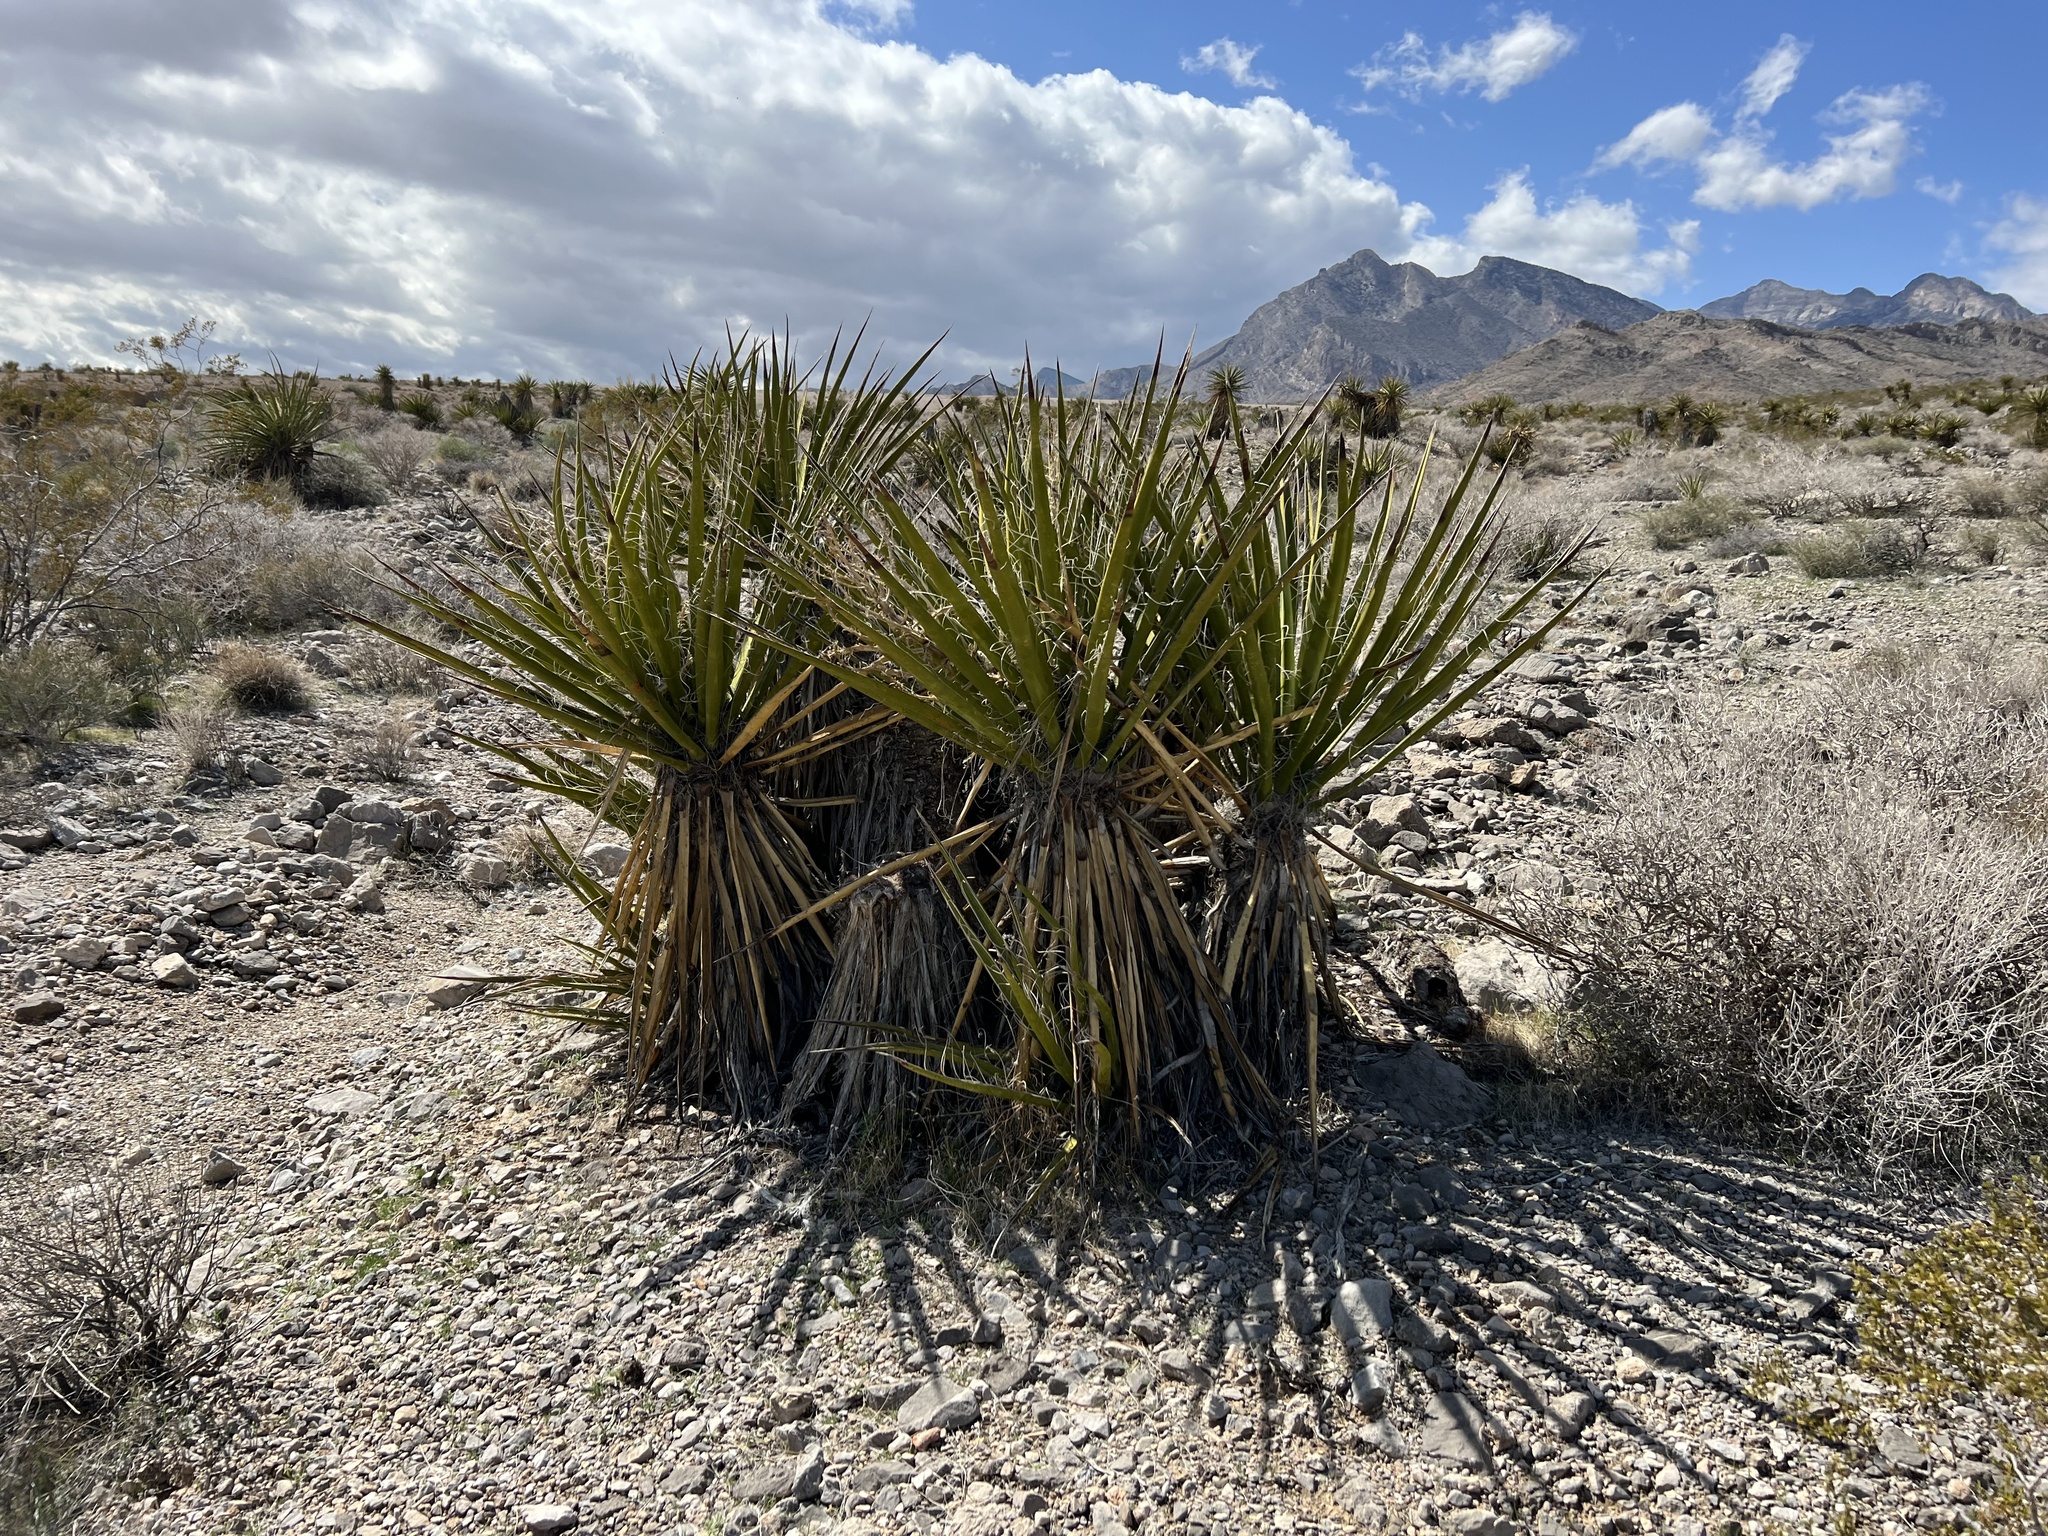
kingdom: Plantae
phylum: Tracheophyta
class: Liliopsida
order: Asparagales
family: Asparagaceae
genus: Yucca
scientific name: Yucca schidigera
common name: Mojave yucca
